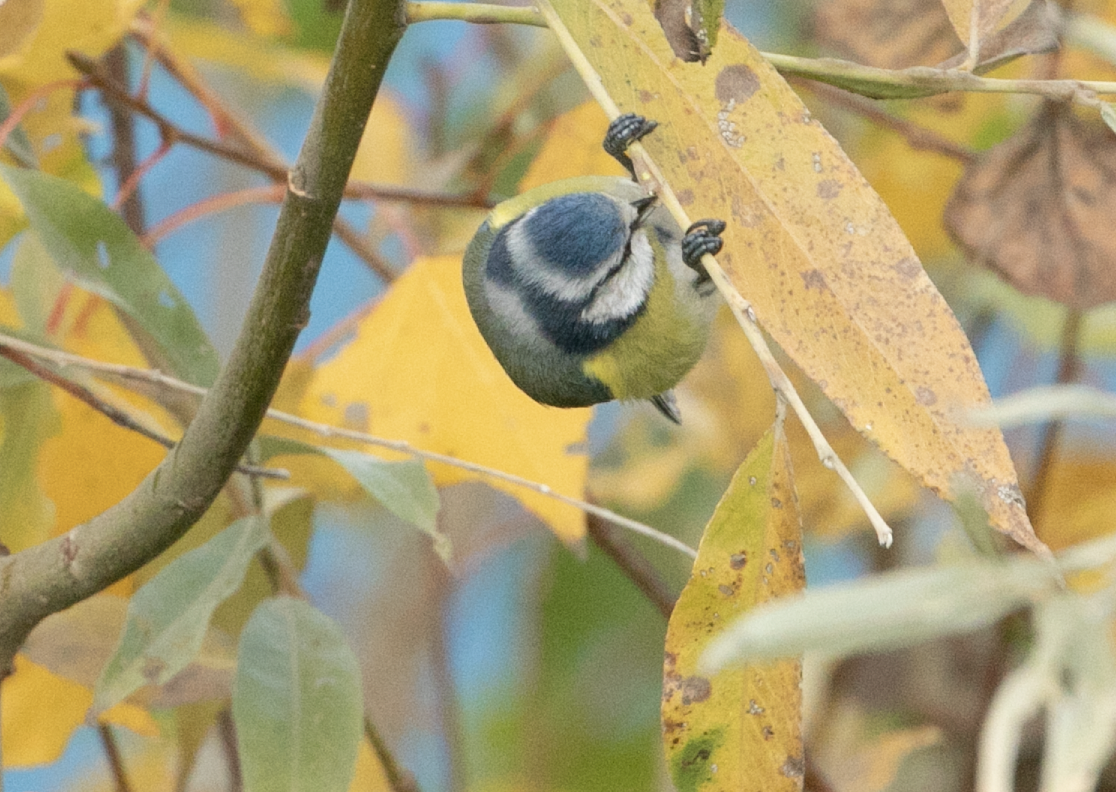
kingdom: Animalia
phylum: Chordata
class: Aves
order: Passeriformes
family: Paridae
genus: Cyanistes
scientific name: Cyanistes caeruleus
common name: Eurasian blue tit
